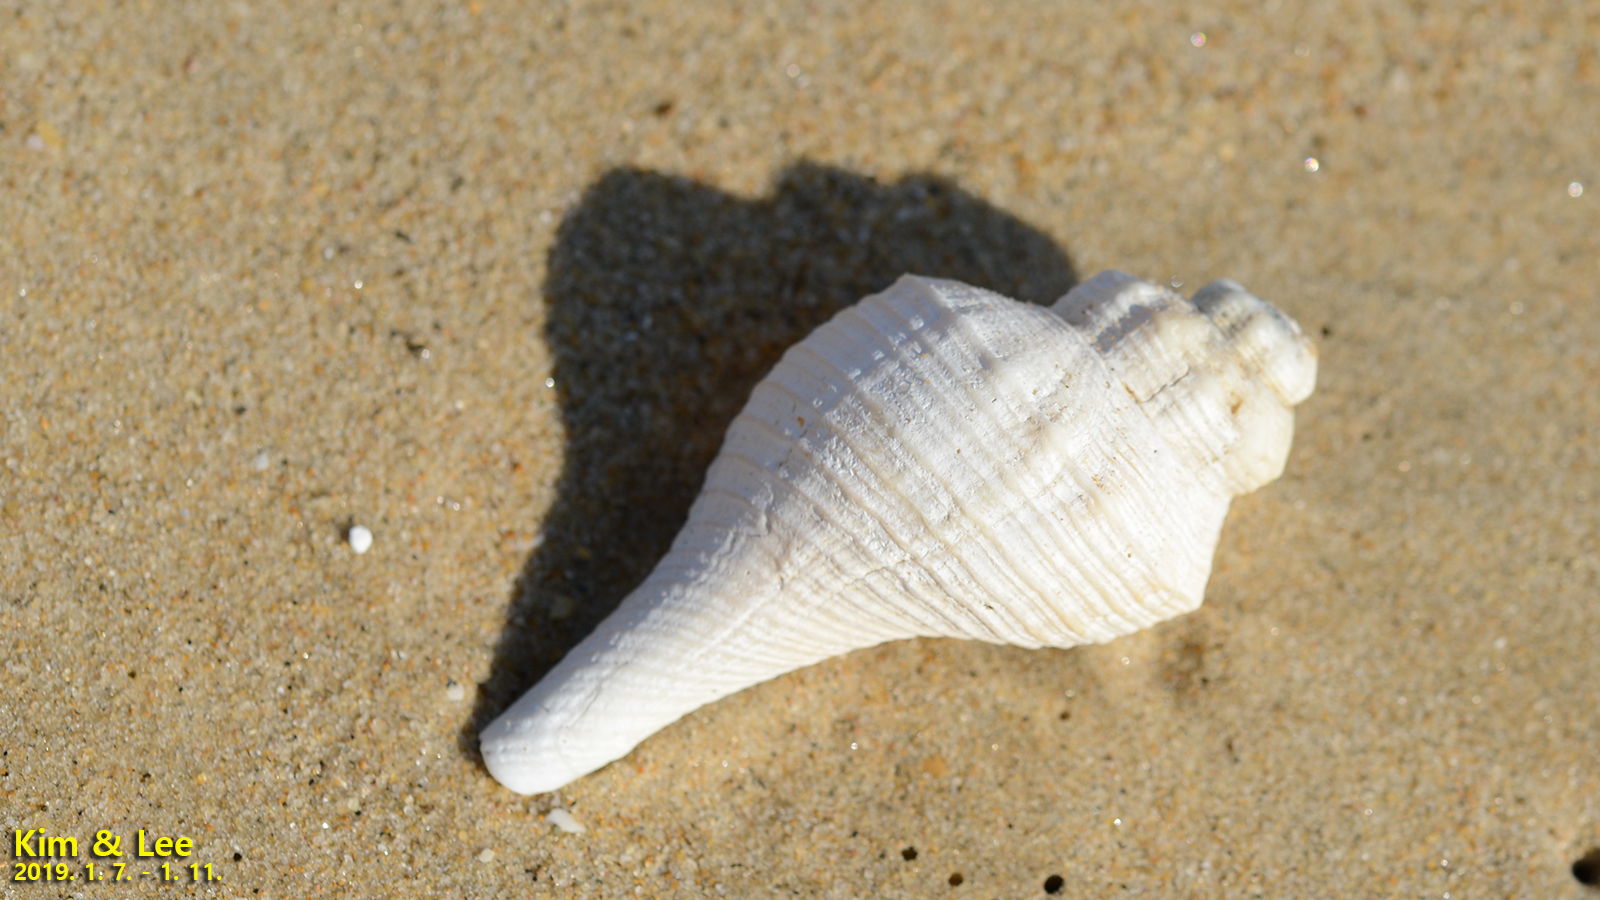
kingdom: Animalia
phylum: Mollusca
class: Gastropoda
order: Neogastropoda
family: Melongenidae
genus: Hemifusus
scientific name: Hemifusus tuba
